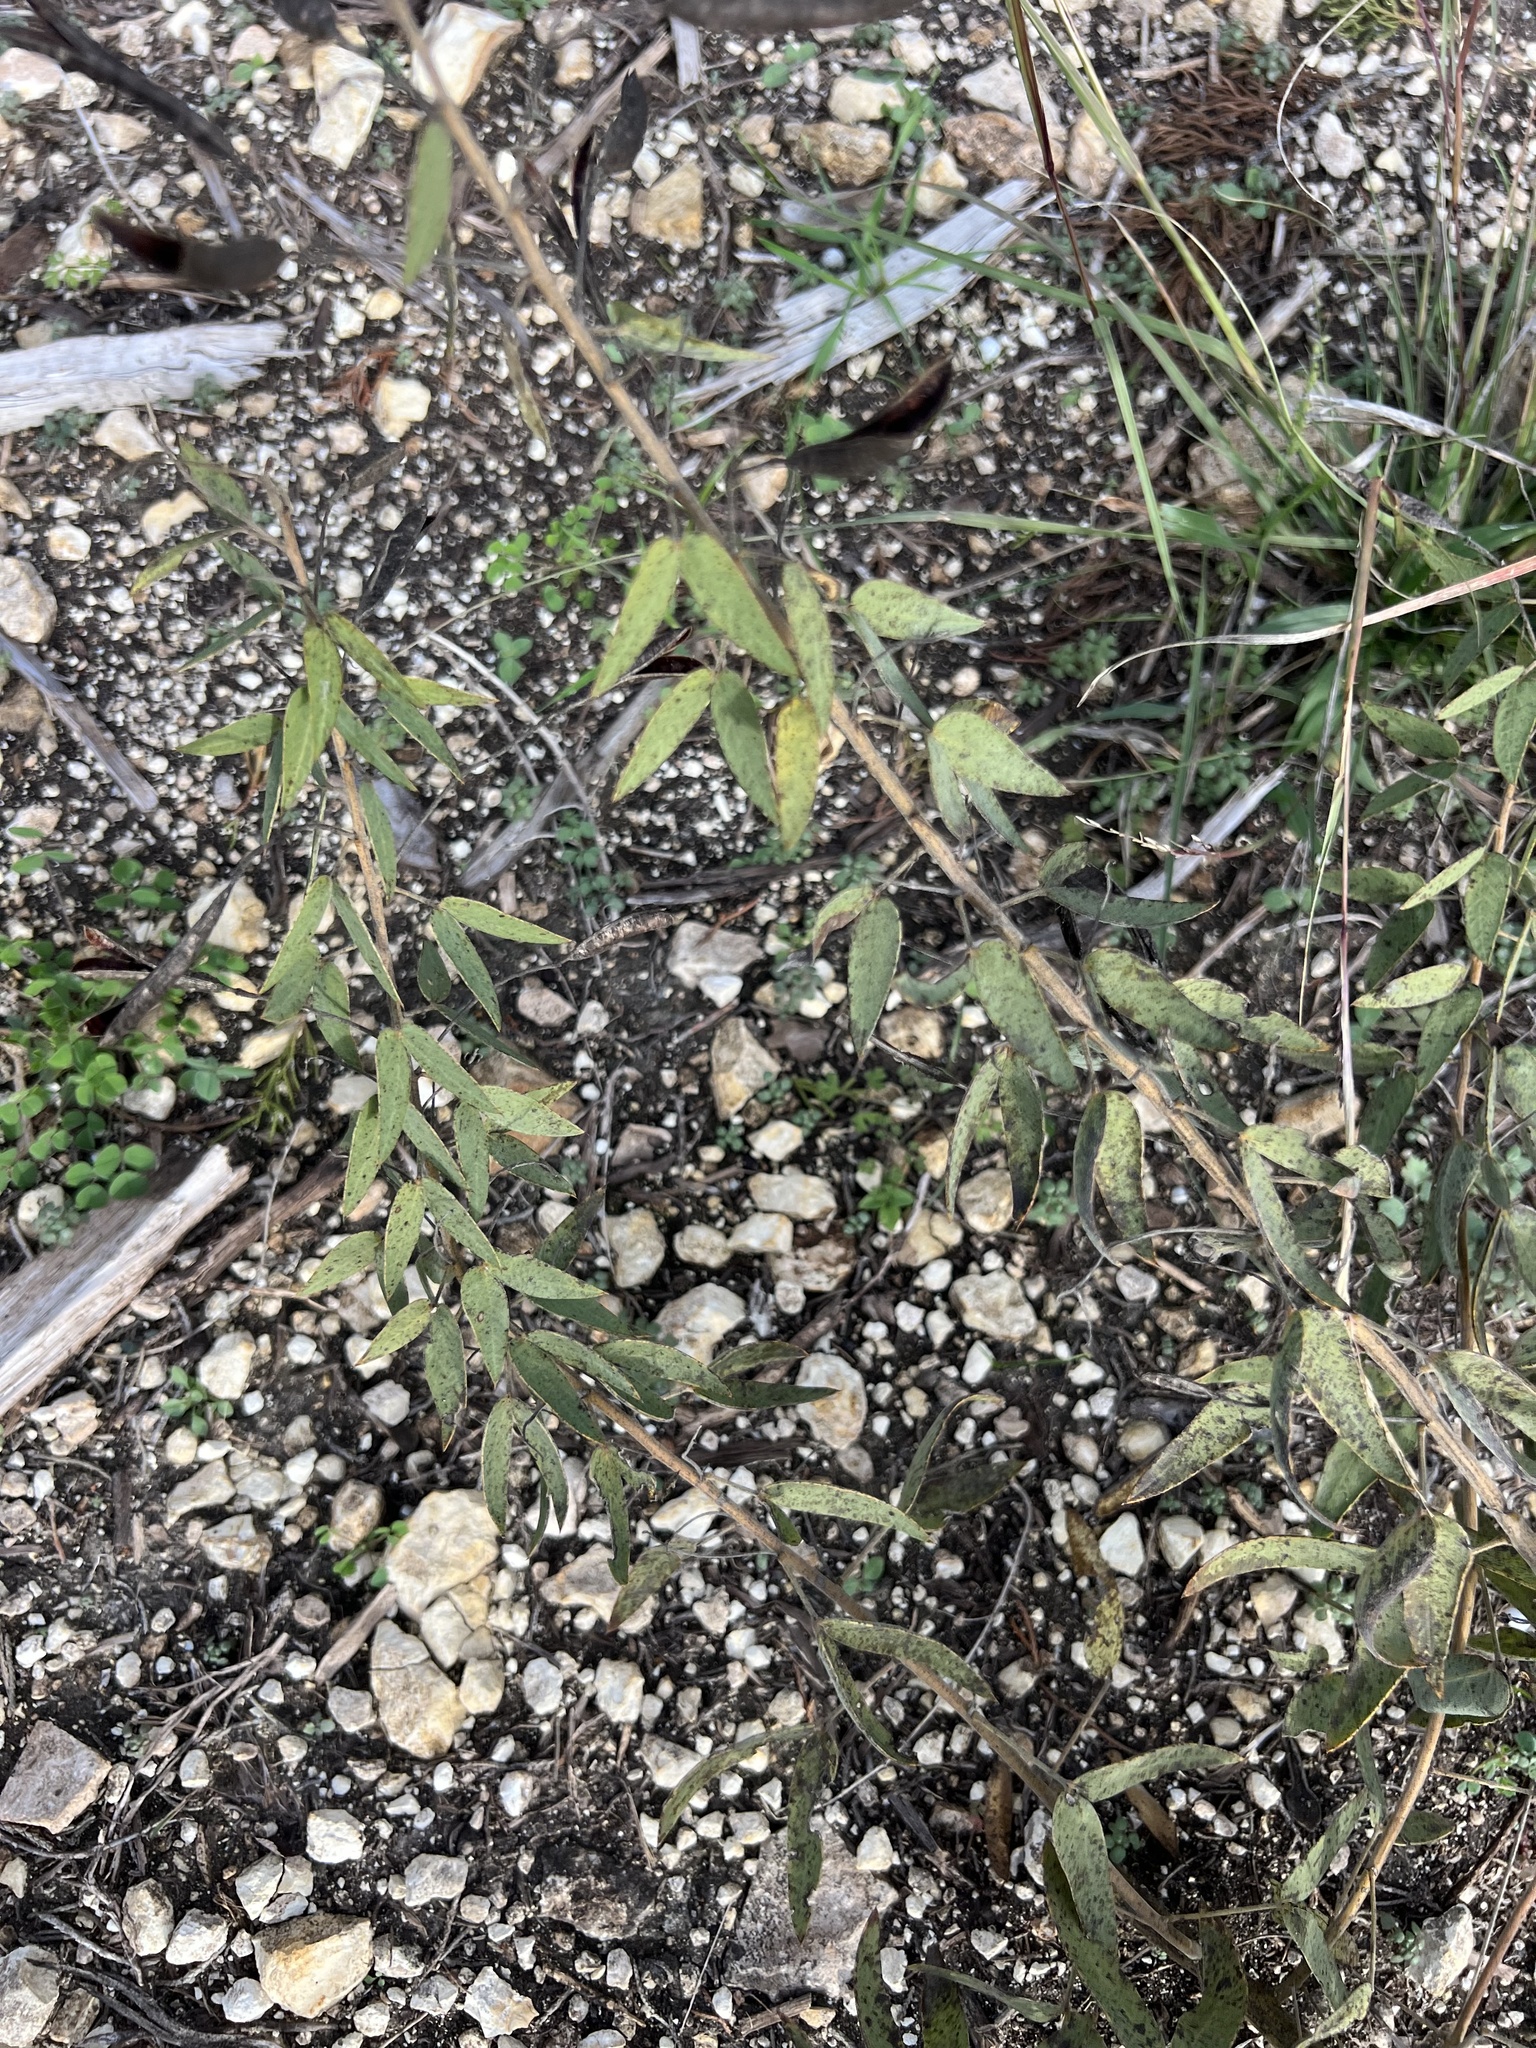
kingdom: Plantae
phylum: Tracheophyta
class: Magnoliopsida
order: Fabales
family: Fabaceae
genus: Senna
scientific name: Senna roemeriana
